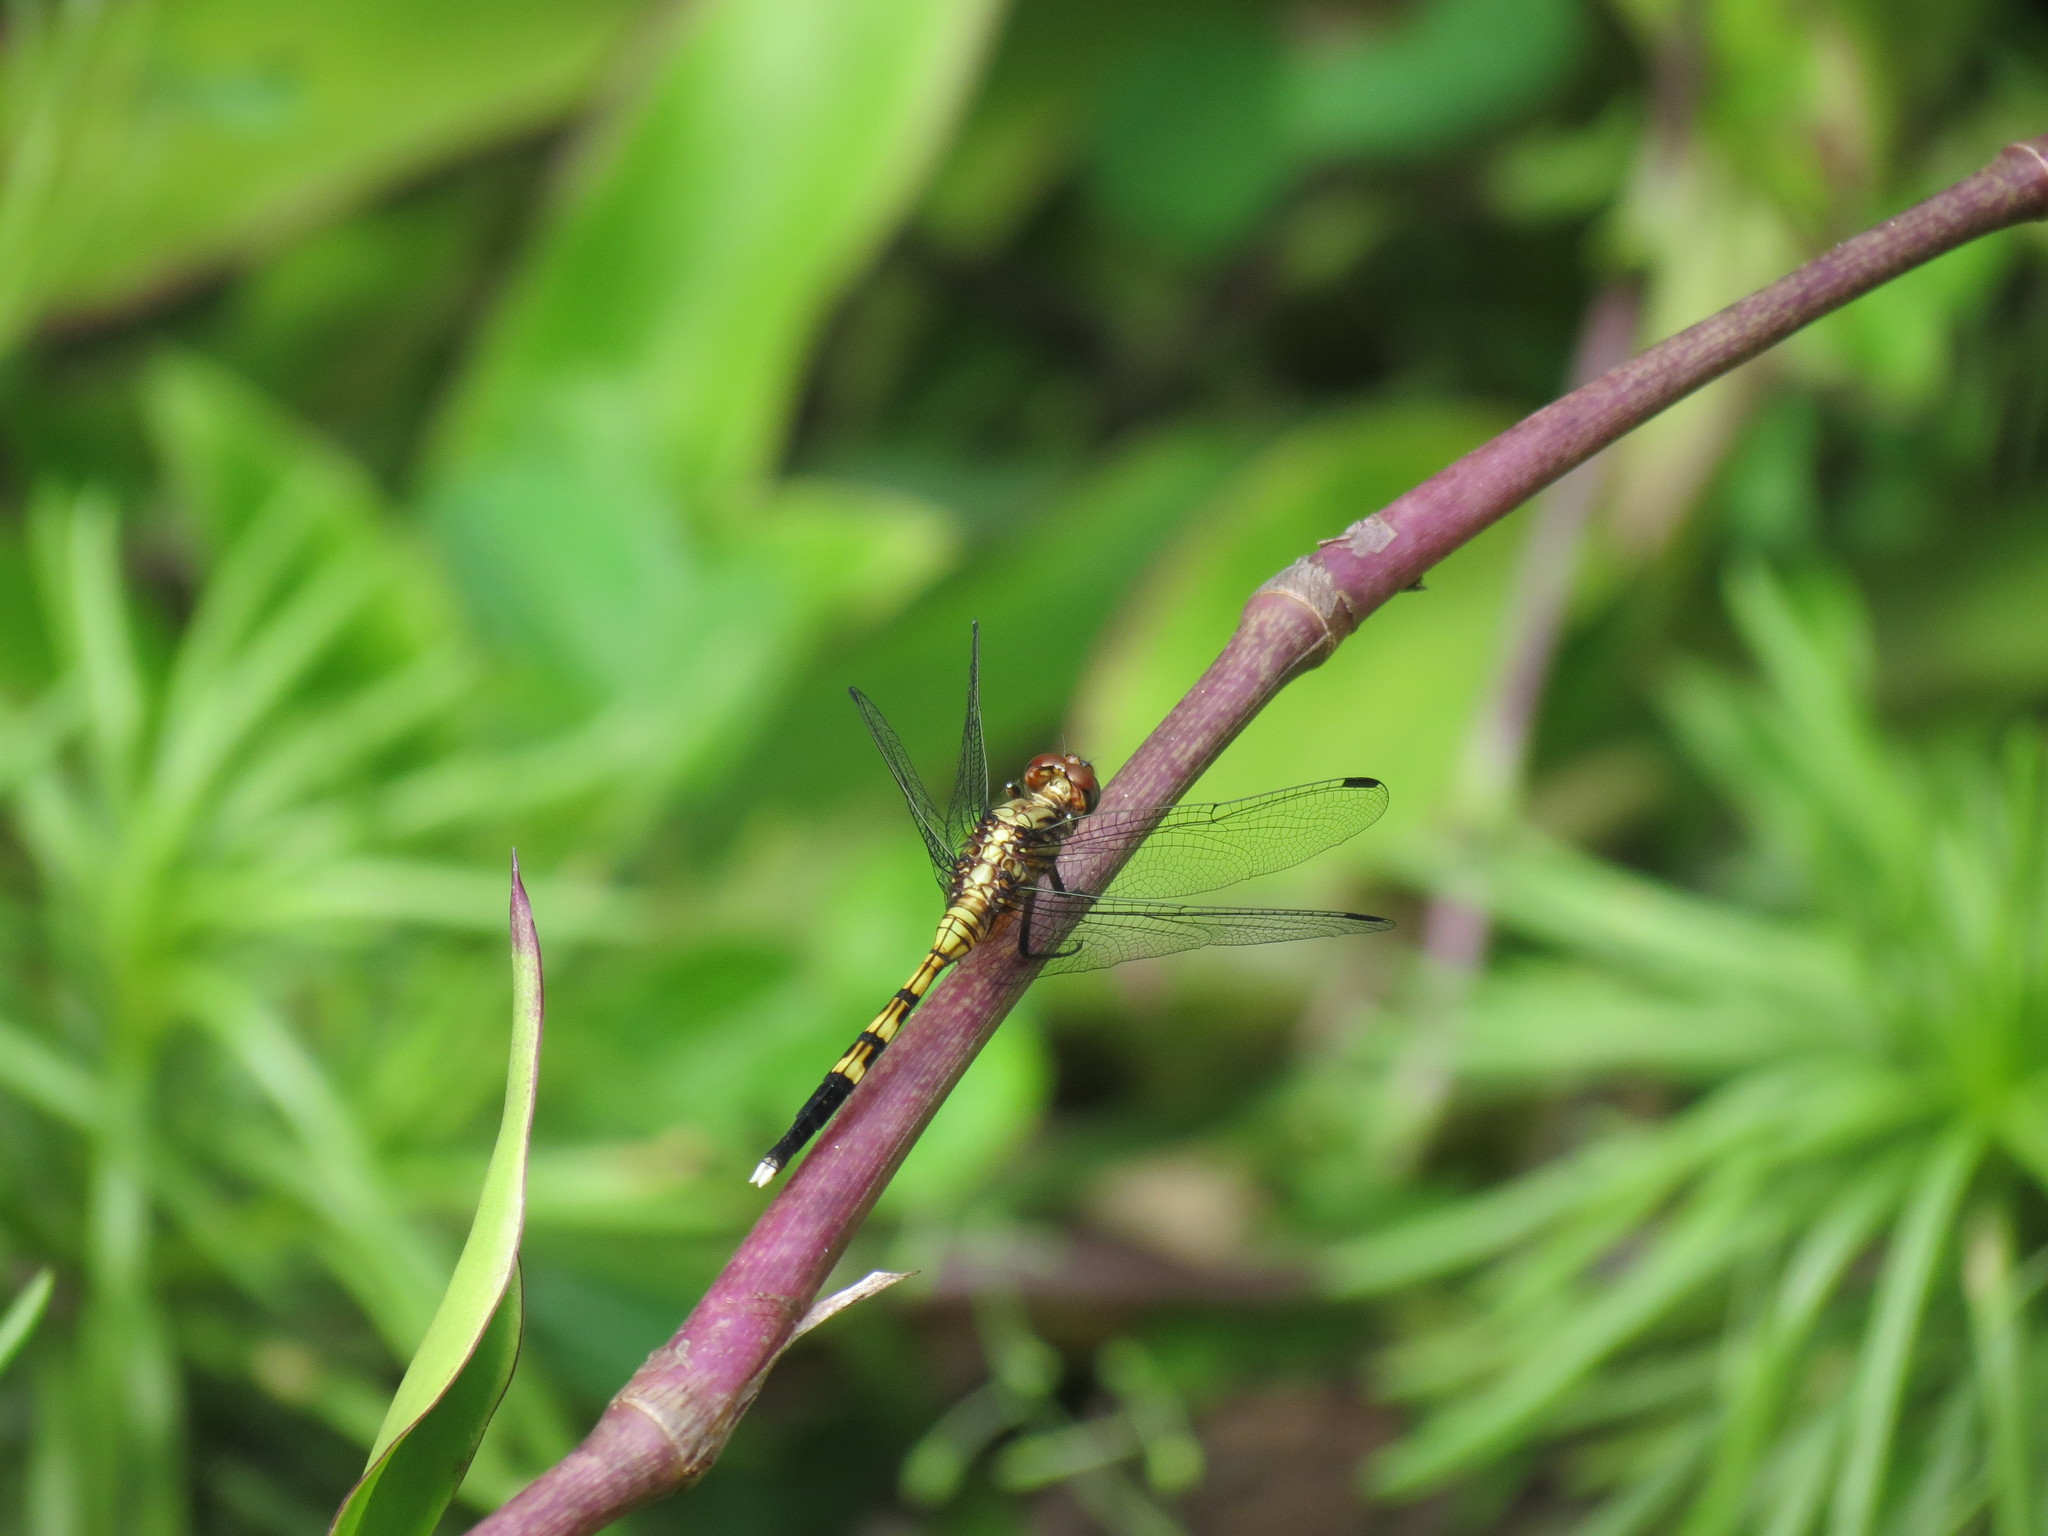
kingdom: Animalia
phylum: Arthropoda
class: Insecta
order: Odonata
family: Libellulidae
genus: Orthetrum
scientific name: Orthetrum julia
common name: Julia skimmer
